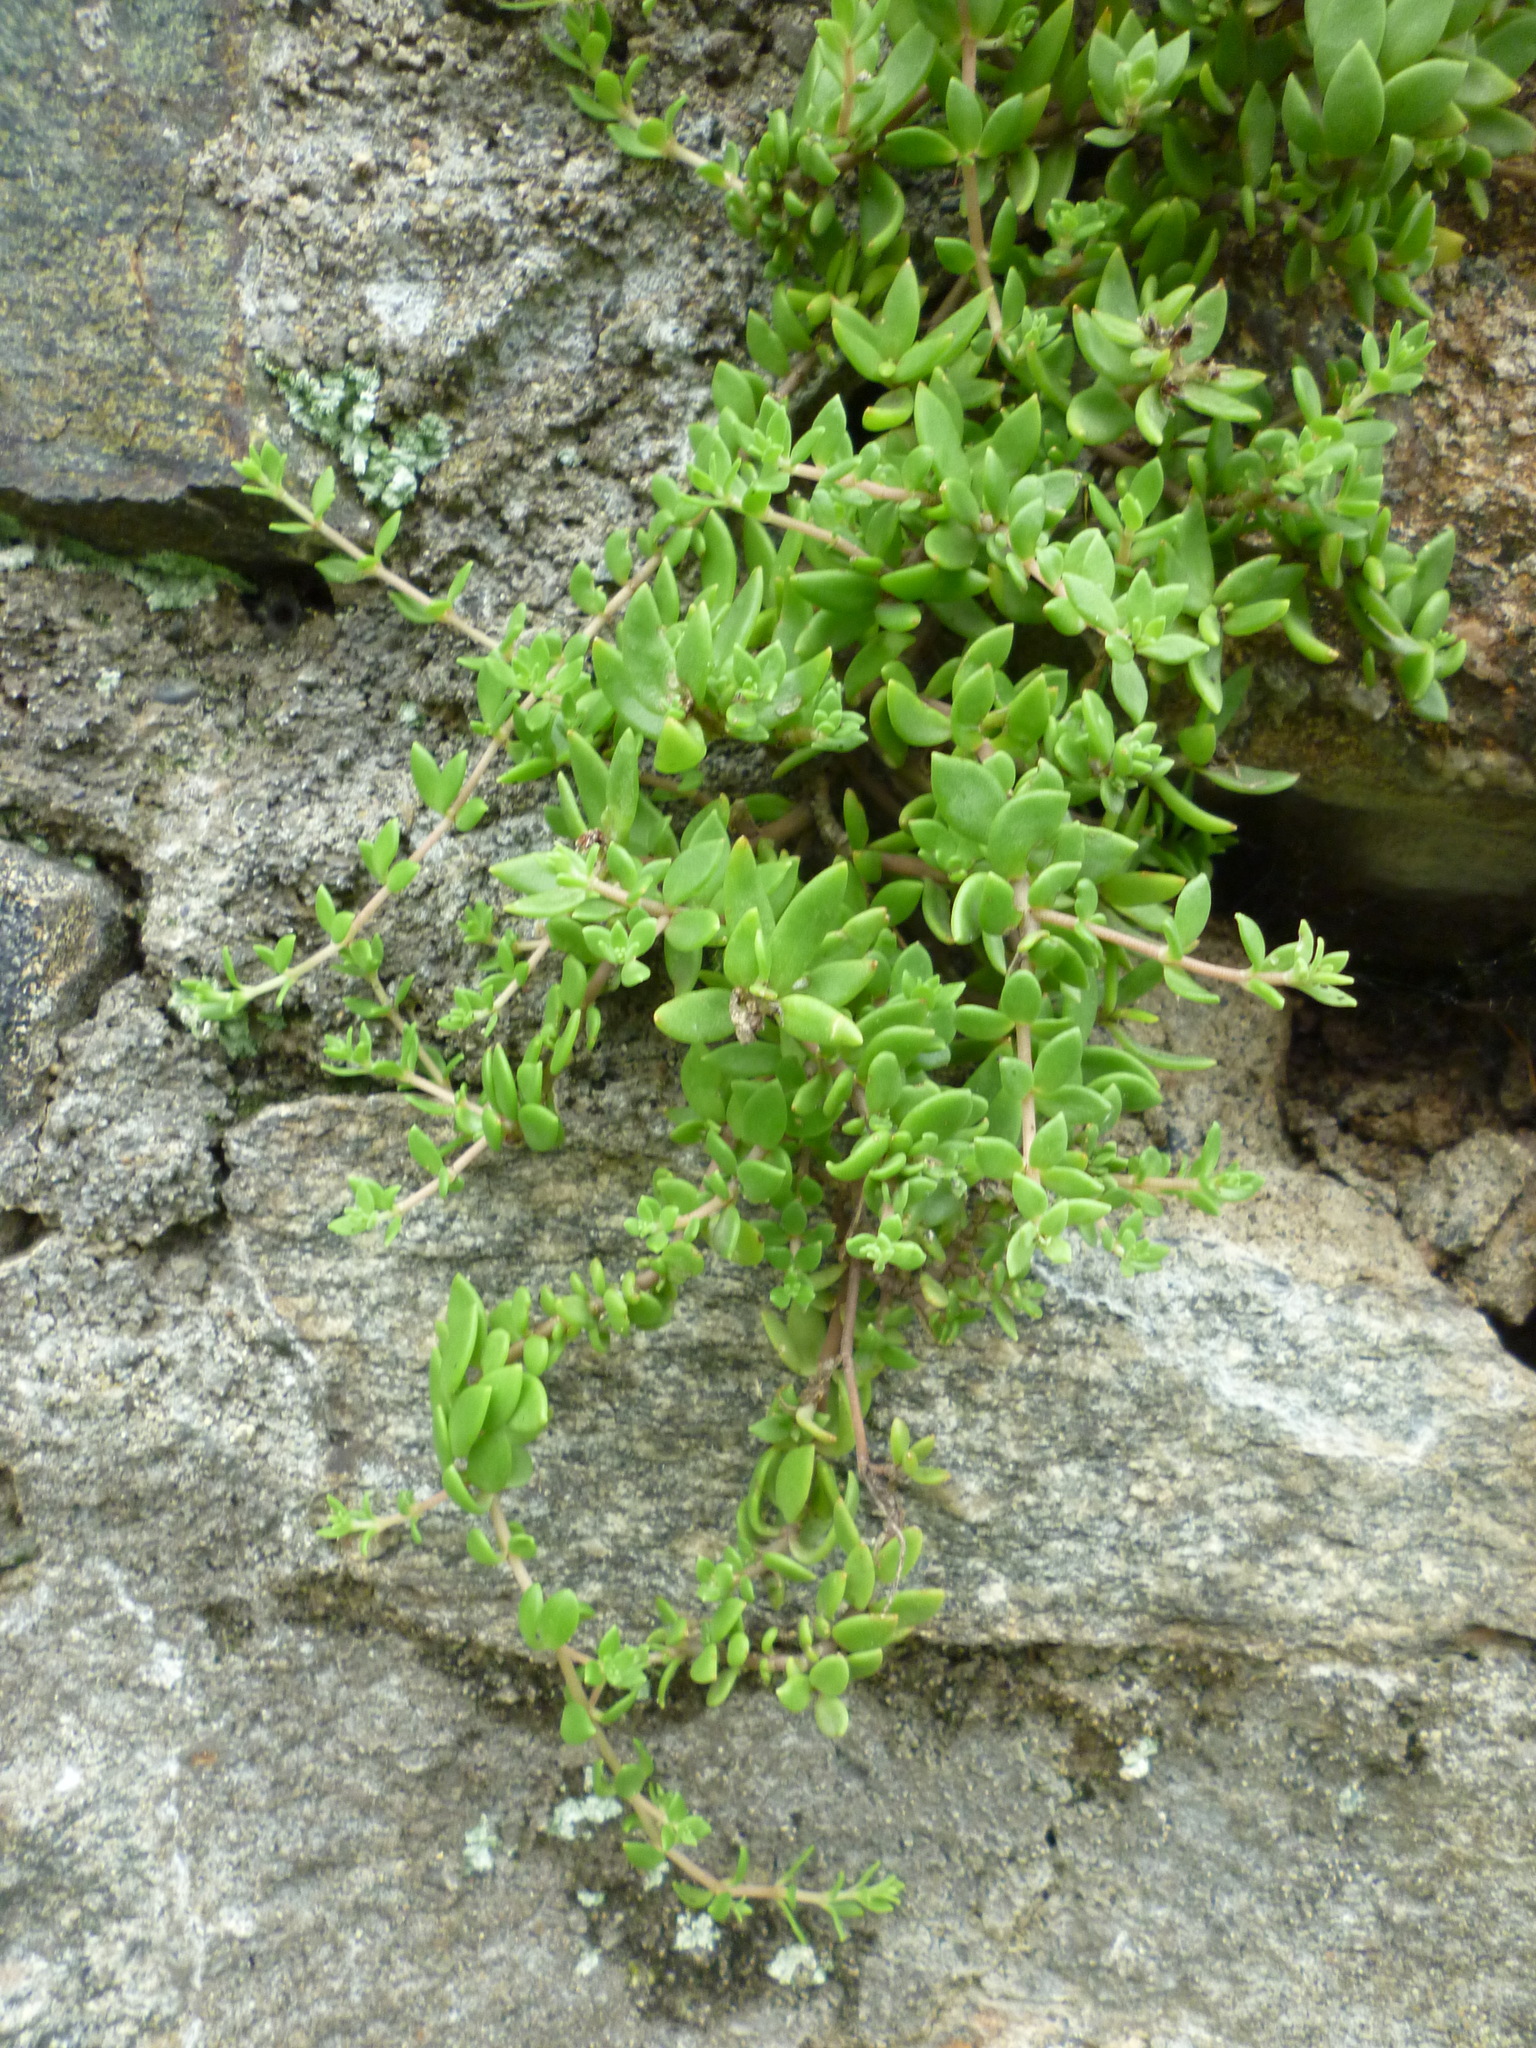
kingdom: Plantae
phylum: Tracheophyta
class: Magnoliopsida
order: Saxifragales
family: Crassulaceae
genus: Sedum
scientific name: Sedum sarmentosum
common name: Stringy stonecrop
